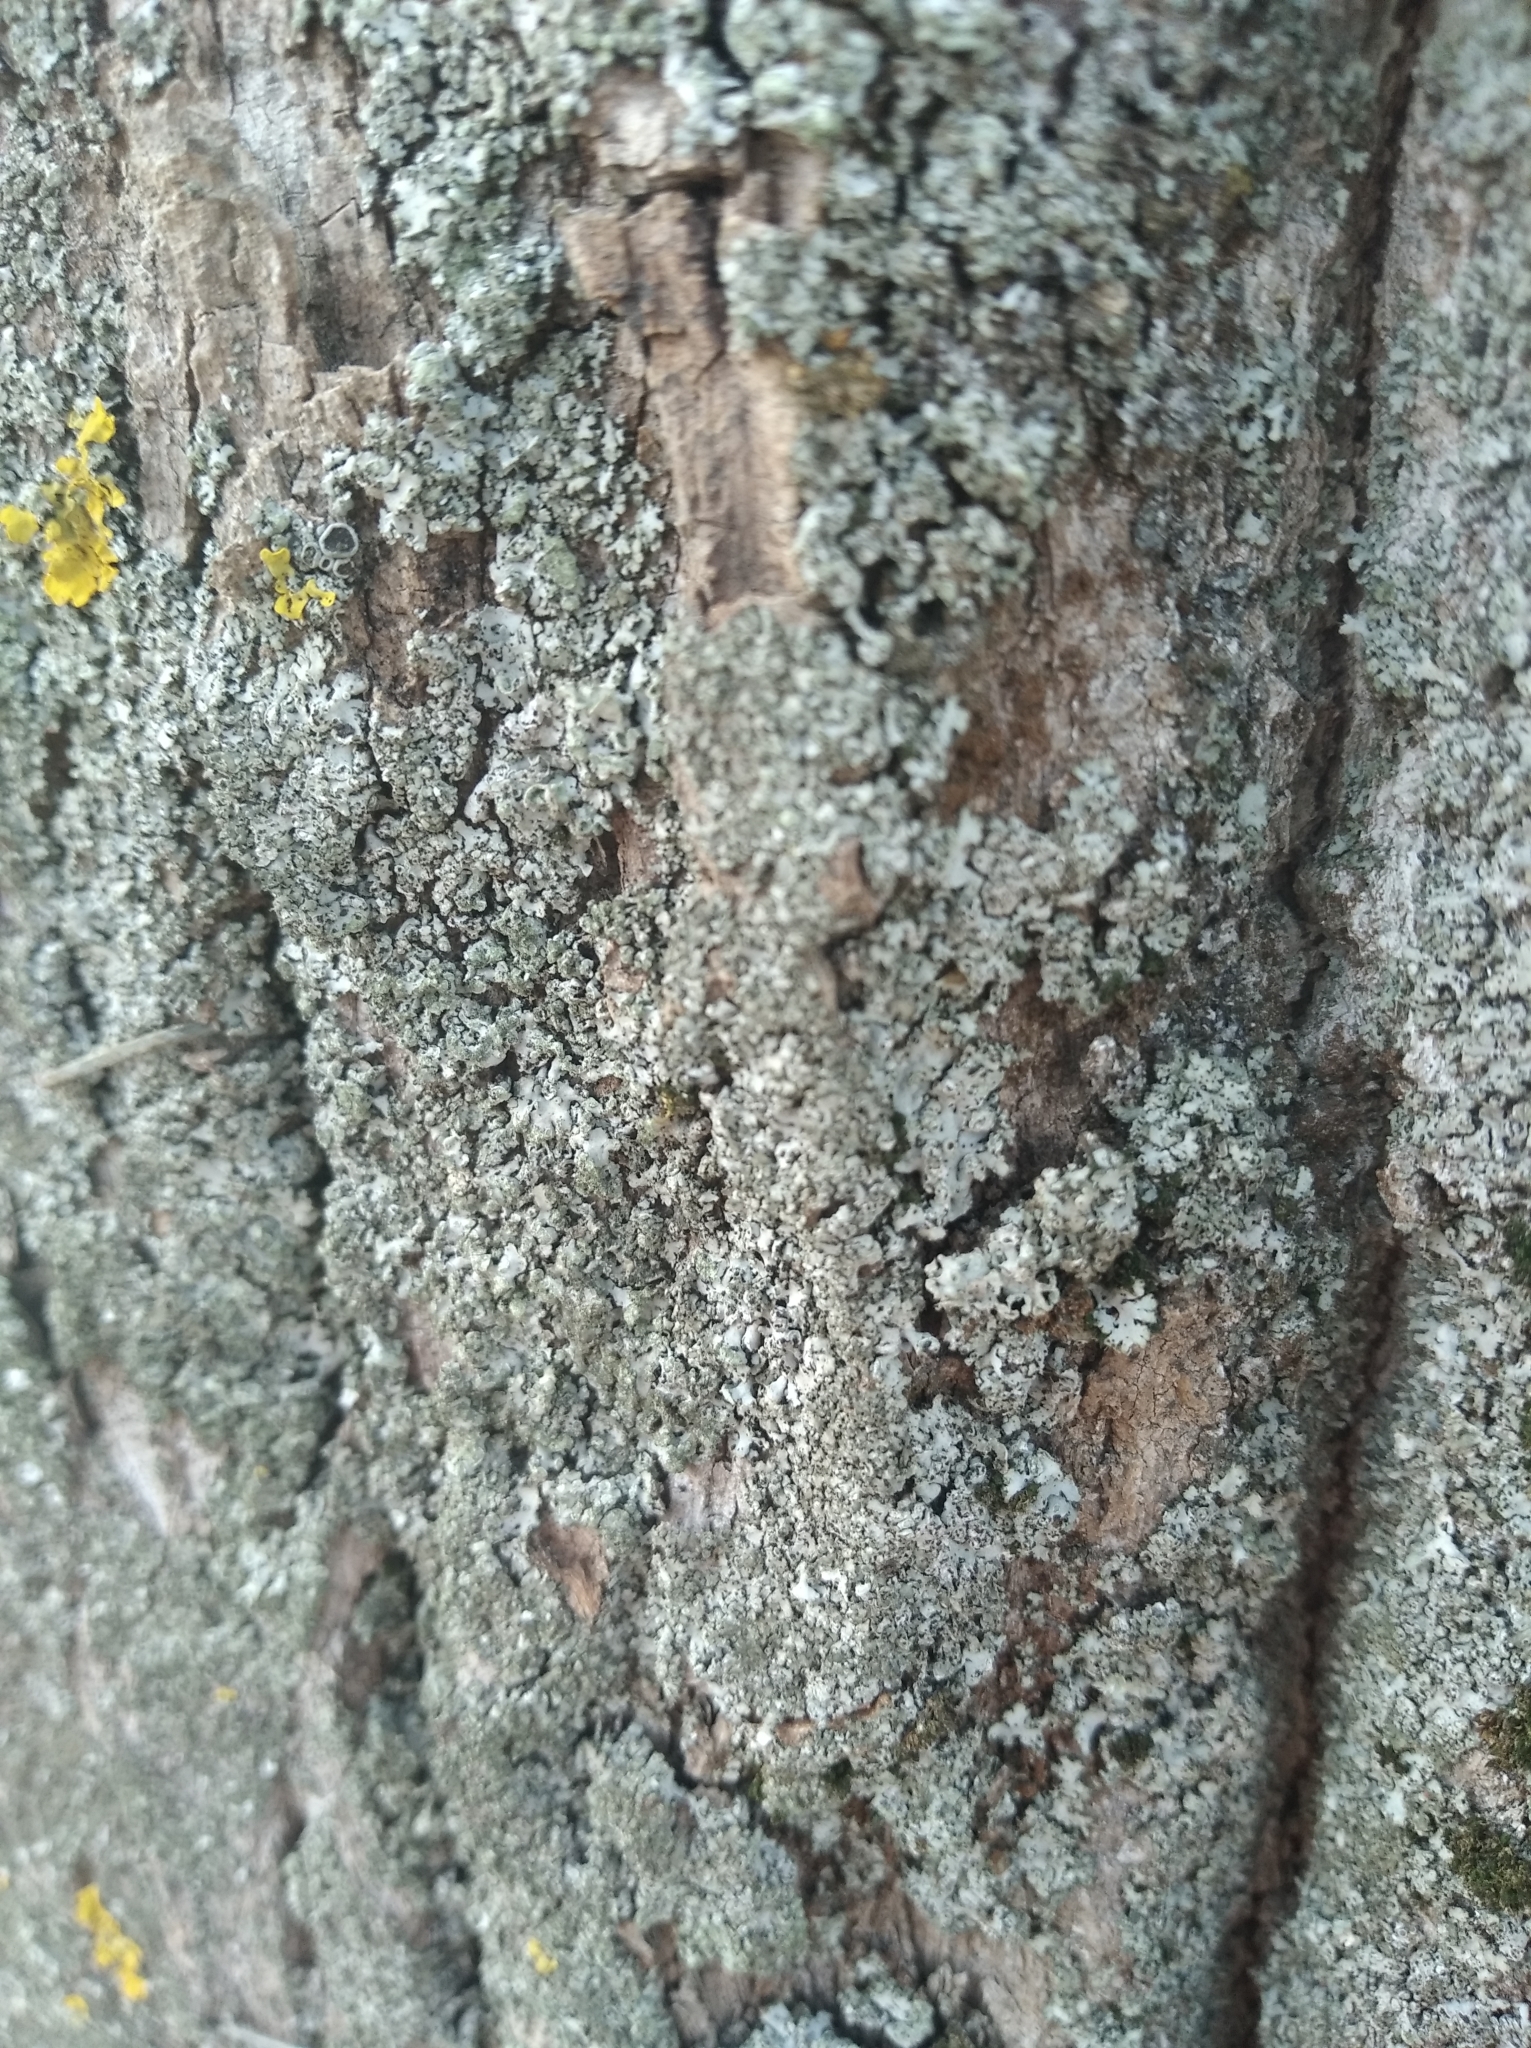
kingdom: Fungi
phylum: Ascomycota
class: Lecanoromycetes
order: Caliciales
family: Physciaceae
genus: Phaeophyscia
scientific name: Phaeophyscia orbicularis
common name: Mealy shadow lichen
